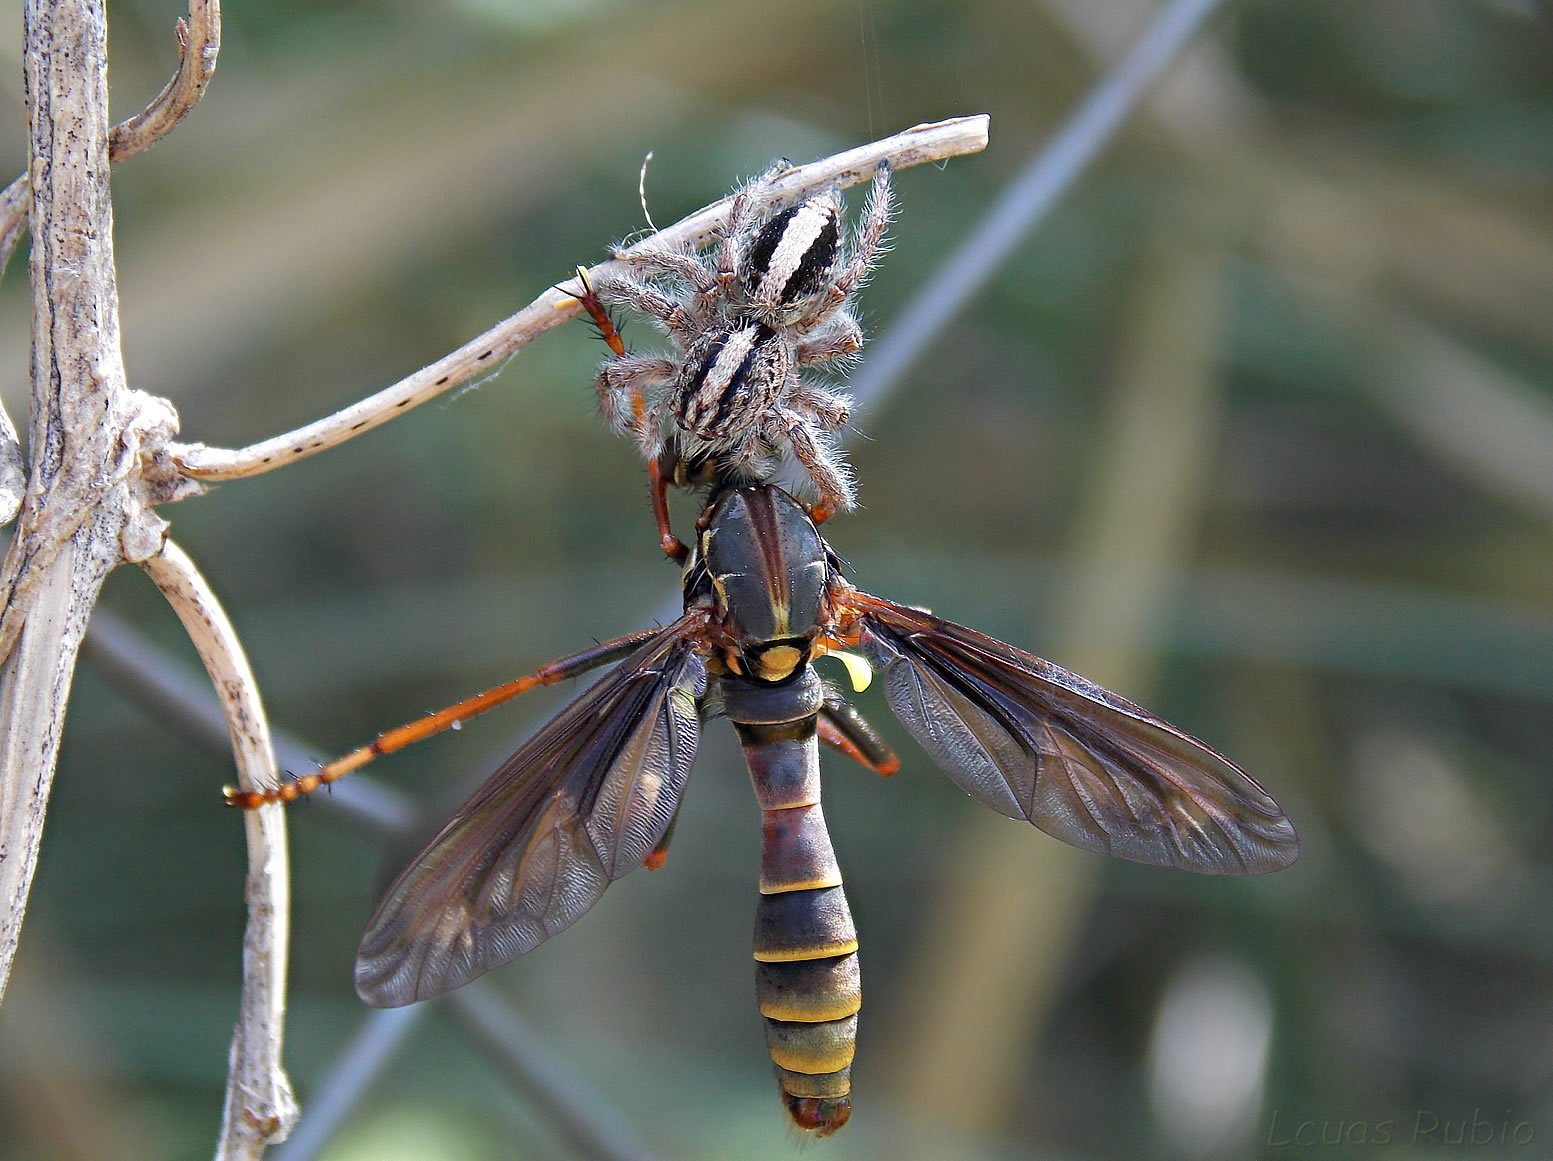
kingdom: Animalia
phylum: Arthropoda
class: Arachnida
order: Araneae
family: Salticidae
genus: Megafreya
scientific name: Megafreya sutrix
